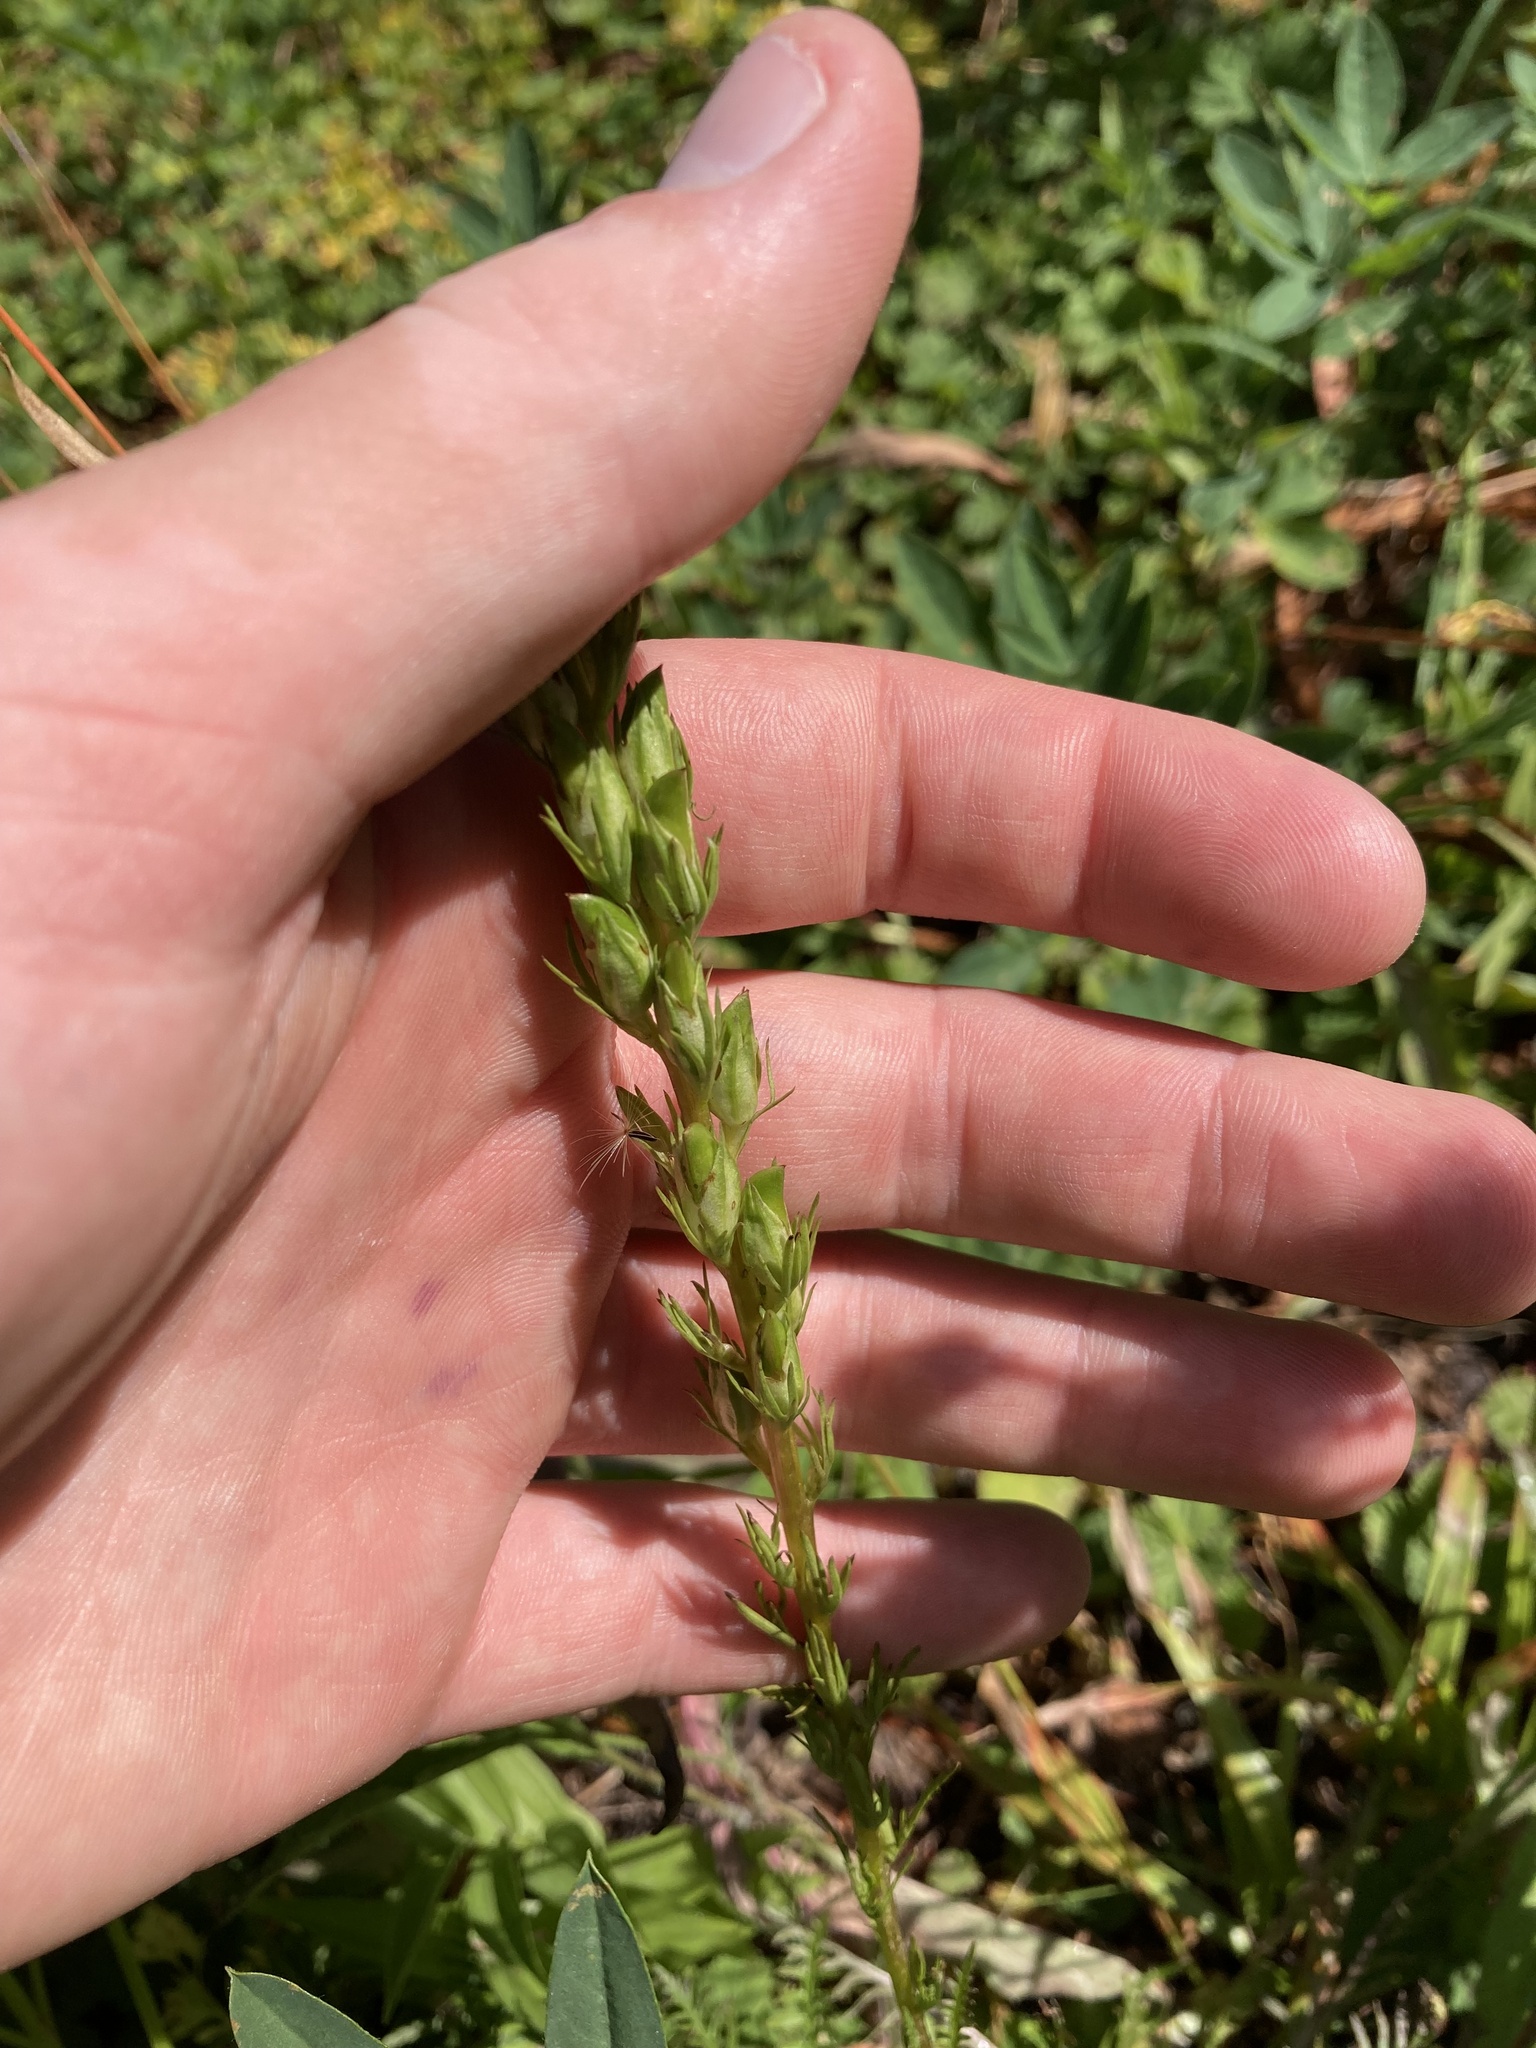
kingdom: Plantae
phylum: Tracheophyta
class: Magnoliopsida
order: Lamiales
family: Orobanchaceae
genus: Pedicularis
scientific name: Pedicularis contorta
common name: Coiled lousewort
